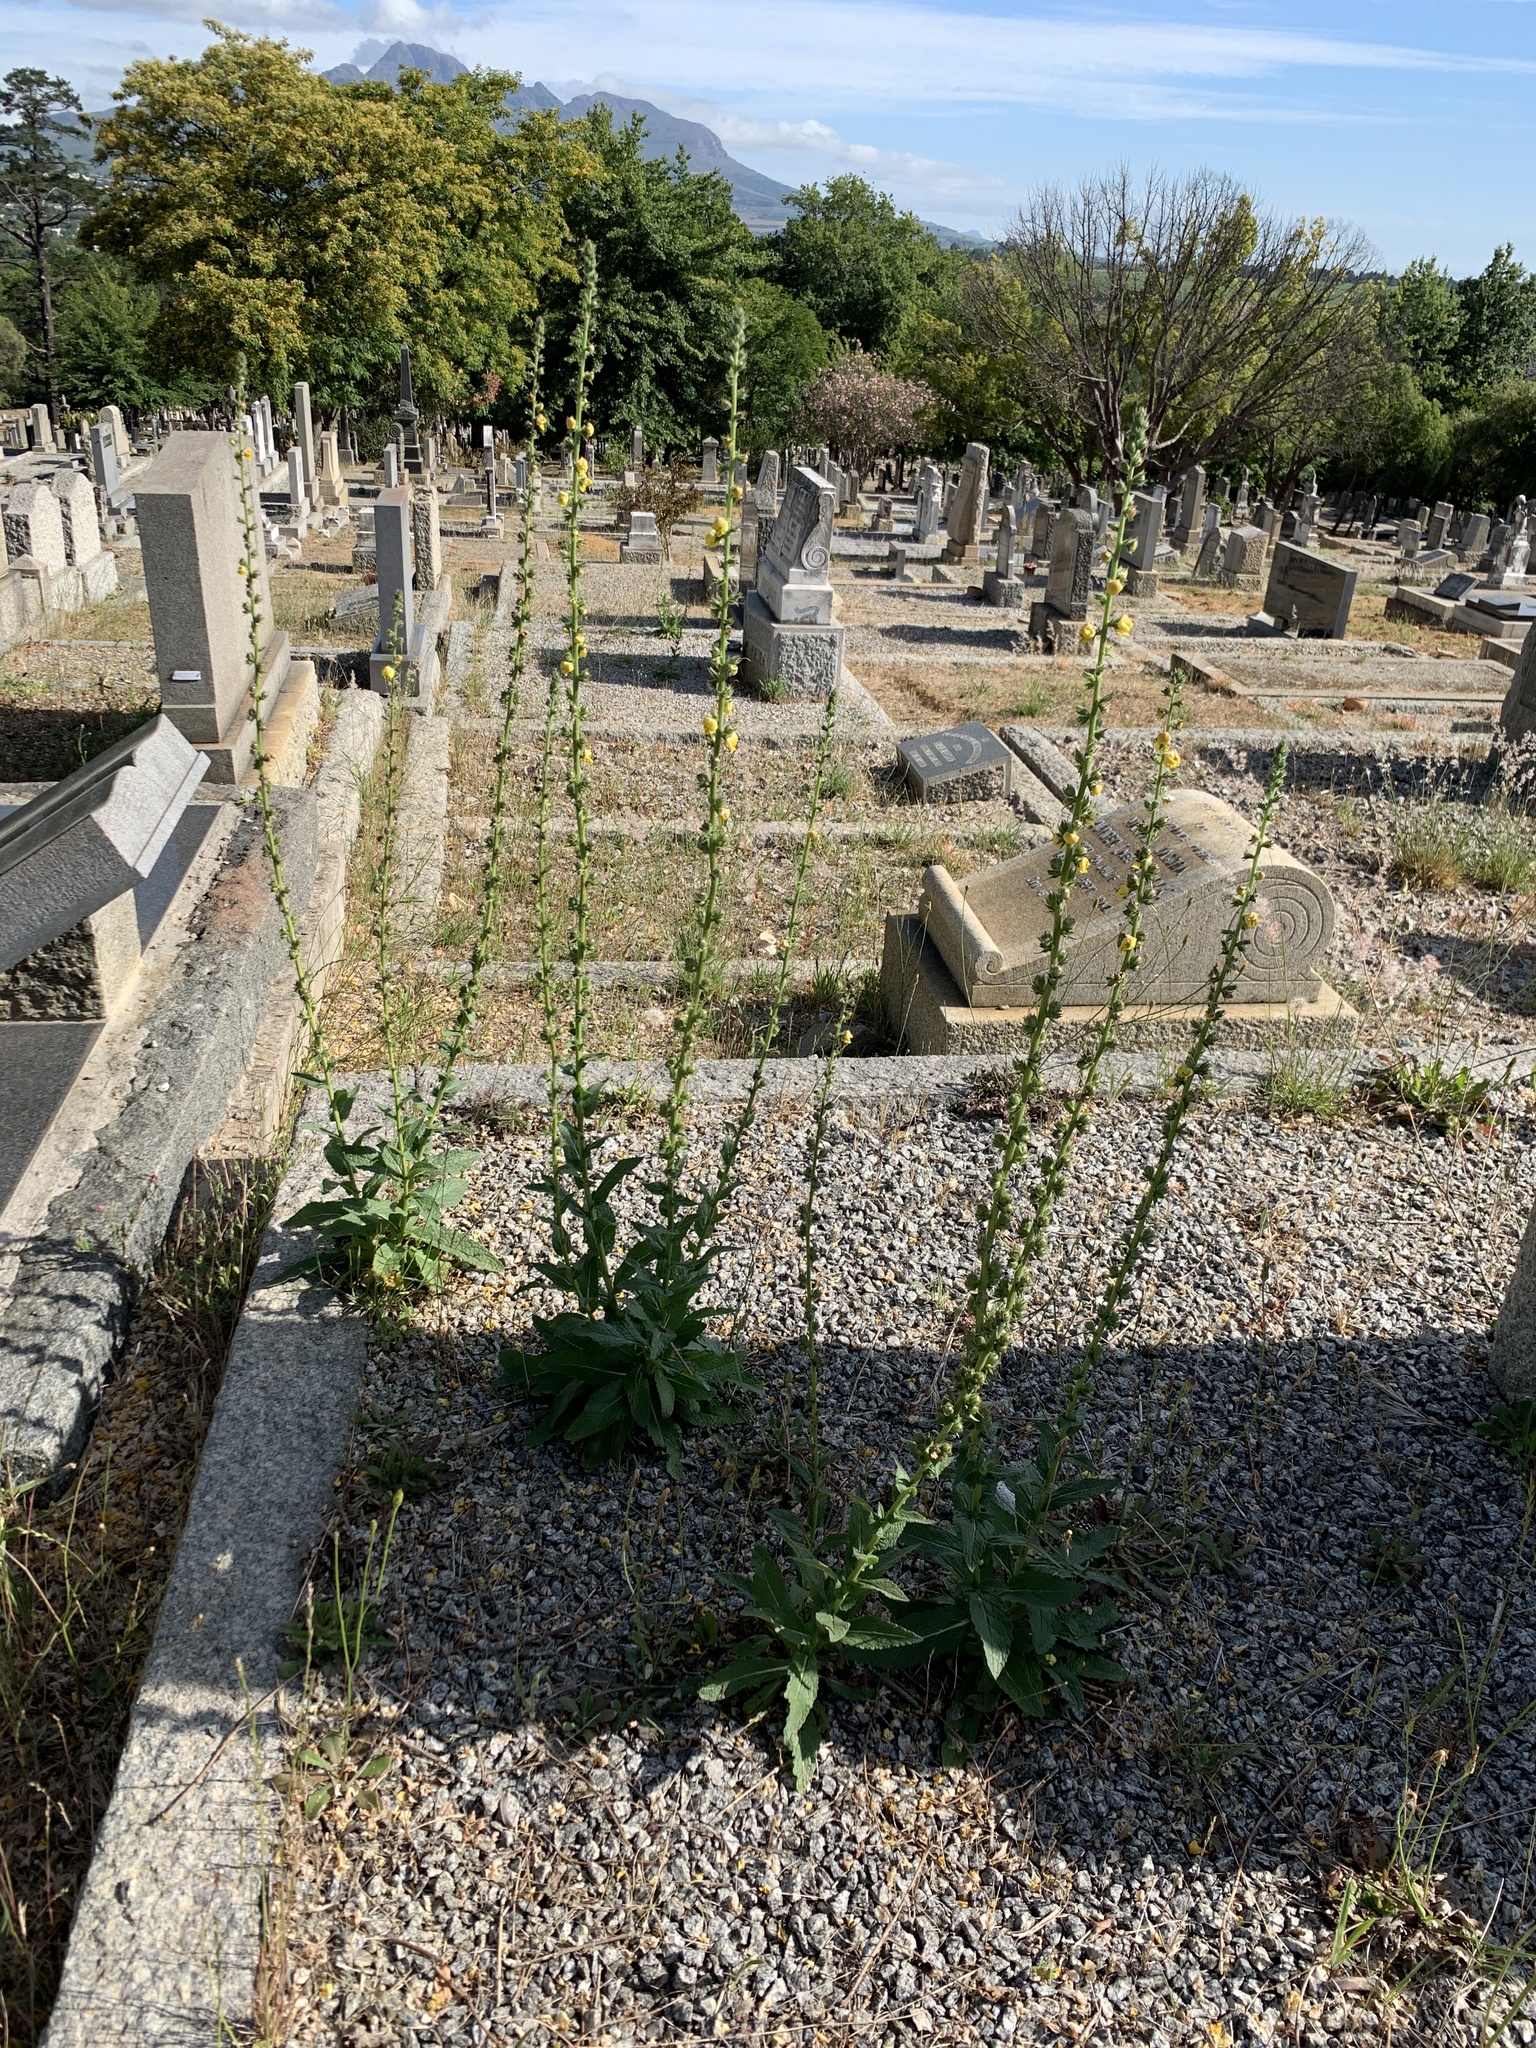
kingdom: Plantae
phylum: Tracheophyta
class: Magnoliopsida
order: Lamiales
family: Scrophulariaceae
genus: Verbascum
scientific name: Verbascum virgatum
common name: Twiggy mullein
